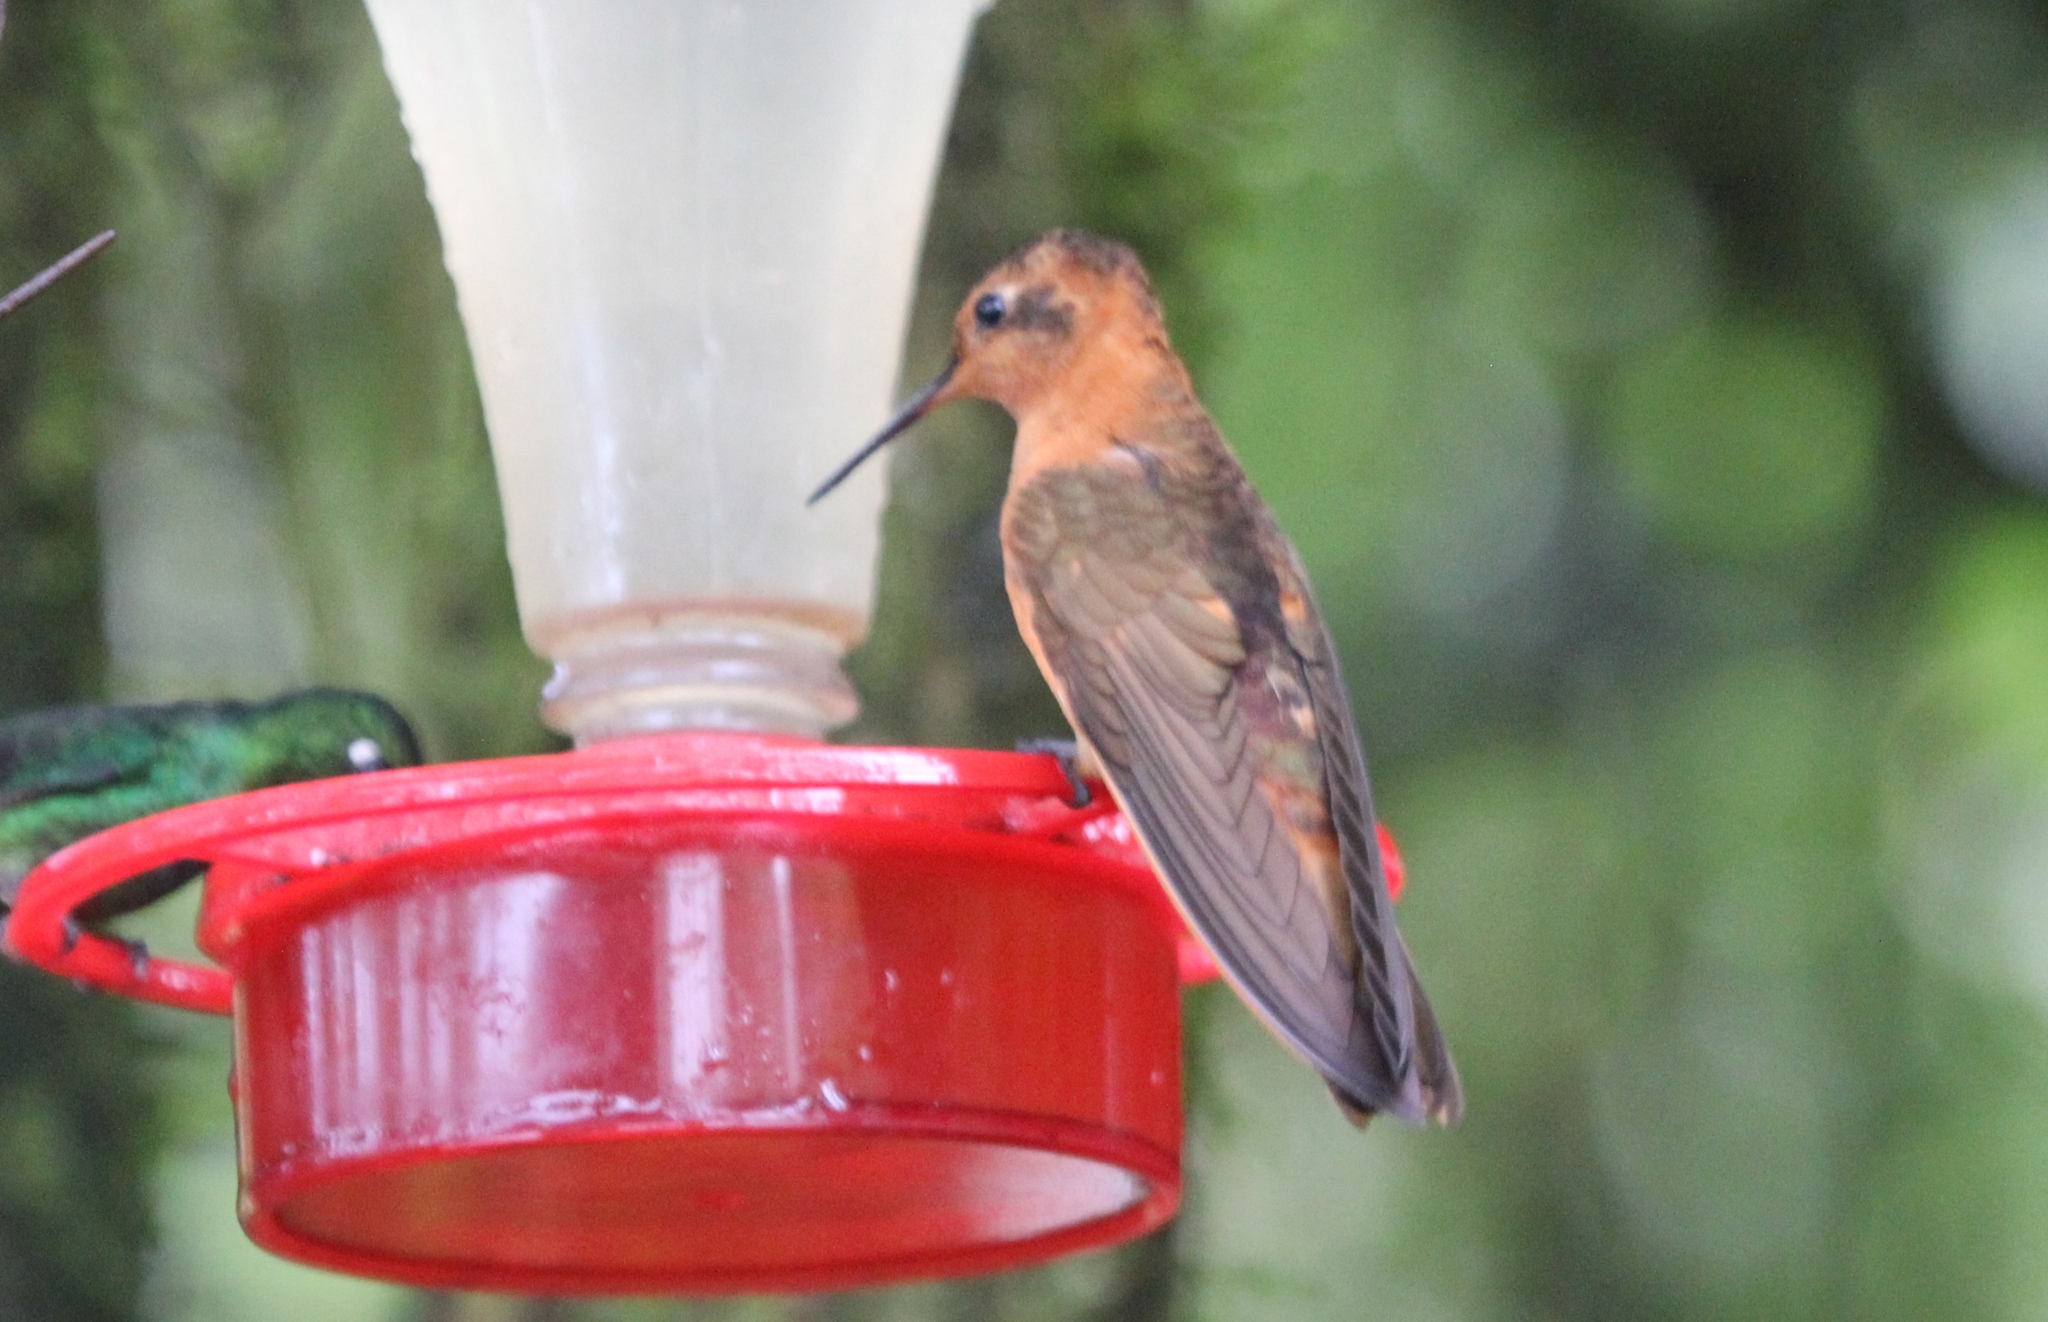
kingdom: Animalia
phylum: Chordata
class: Aves
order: Apodiformes
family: Trochilidae
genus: Aglaeactis
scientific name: Aglaeactis cupripennis
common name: Shining sunbeam
